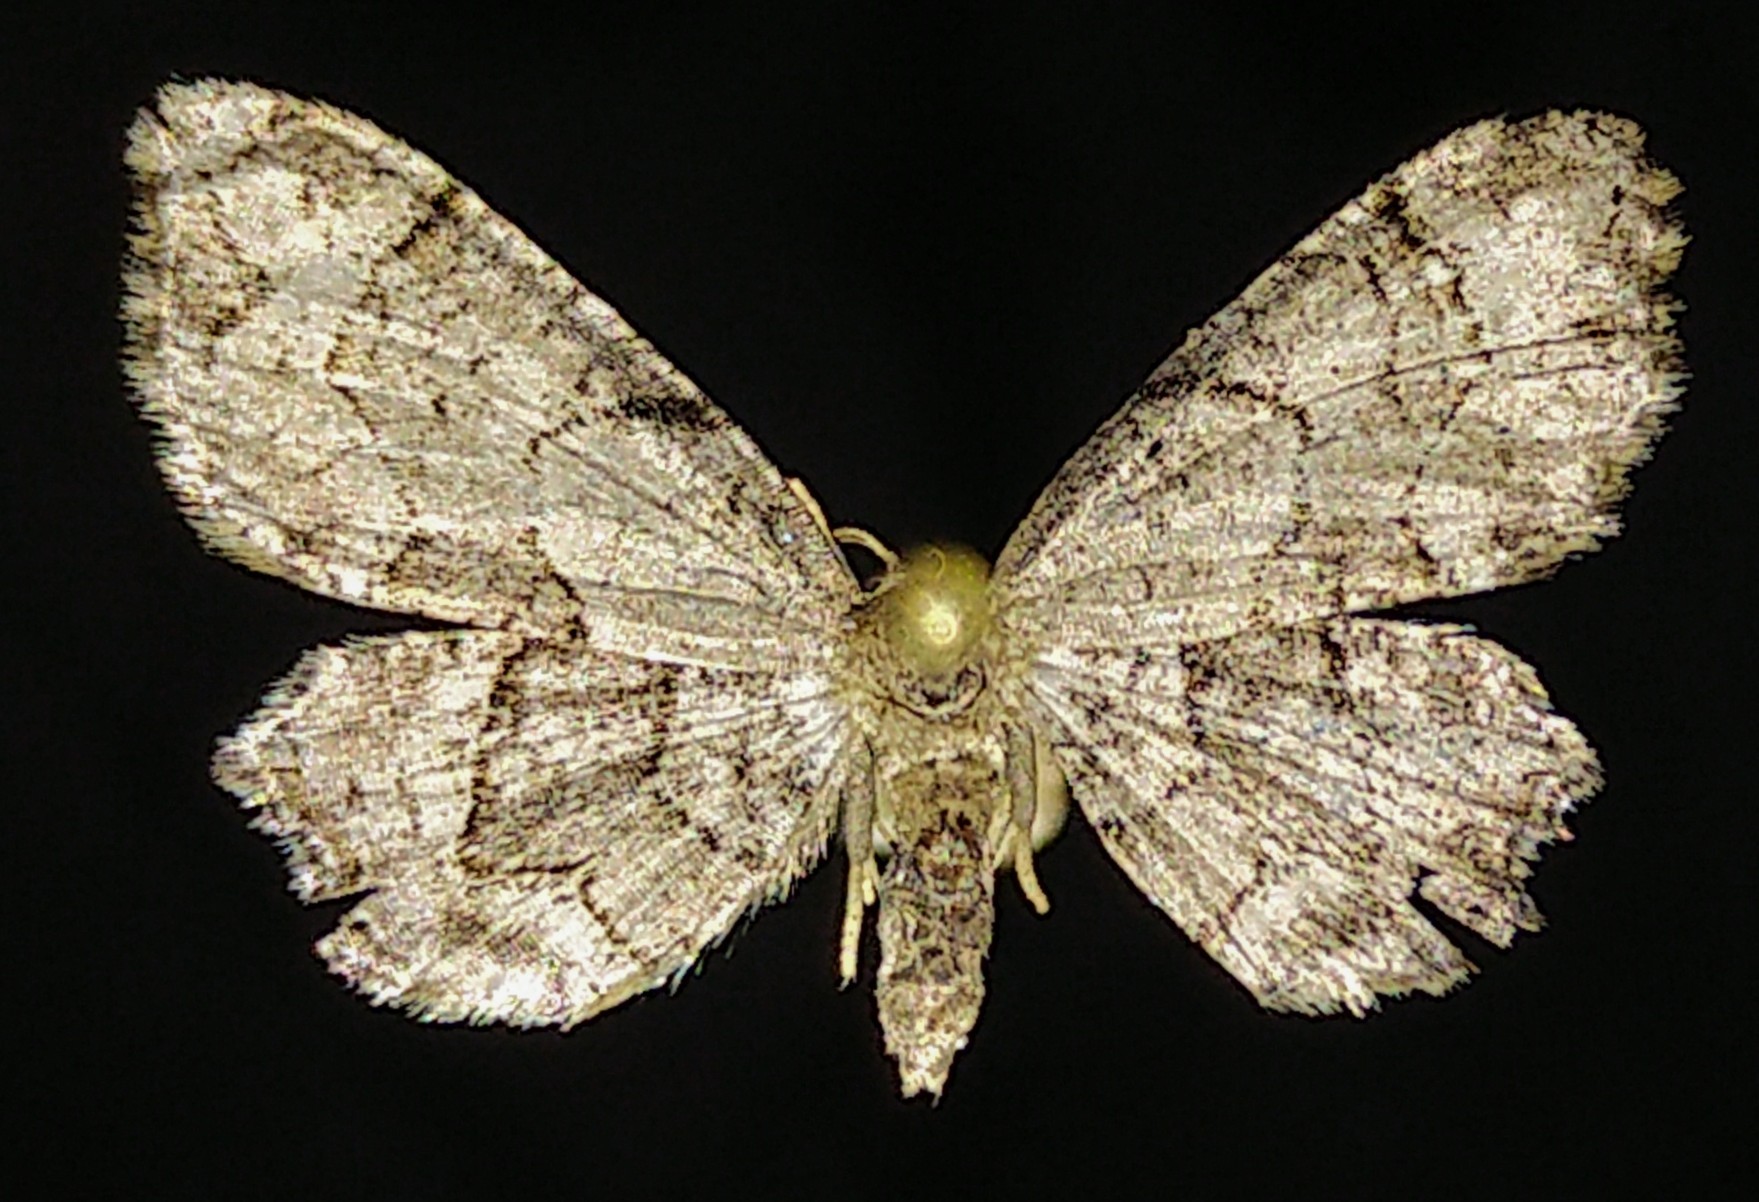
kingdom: Animalia
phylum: Arthropoda
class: Insecta
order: Lepidoptera
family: Uraniidae
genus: Epiplema
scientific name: Epiplema Callizzia amorata
